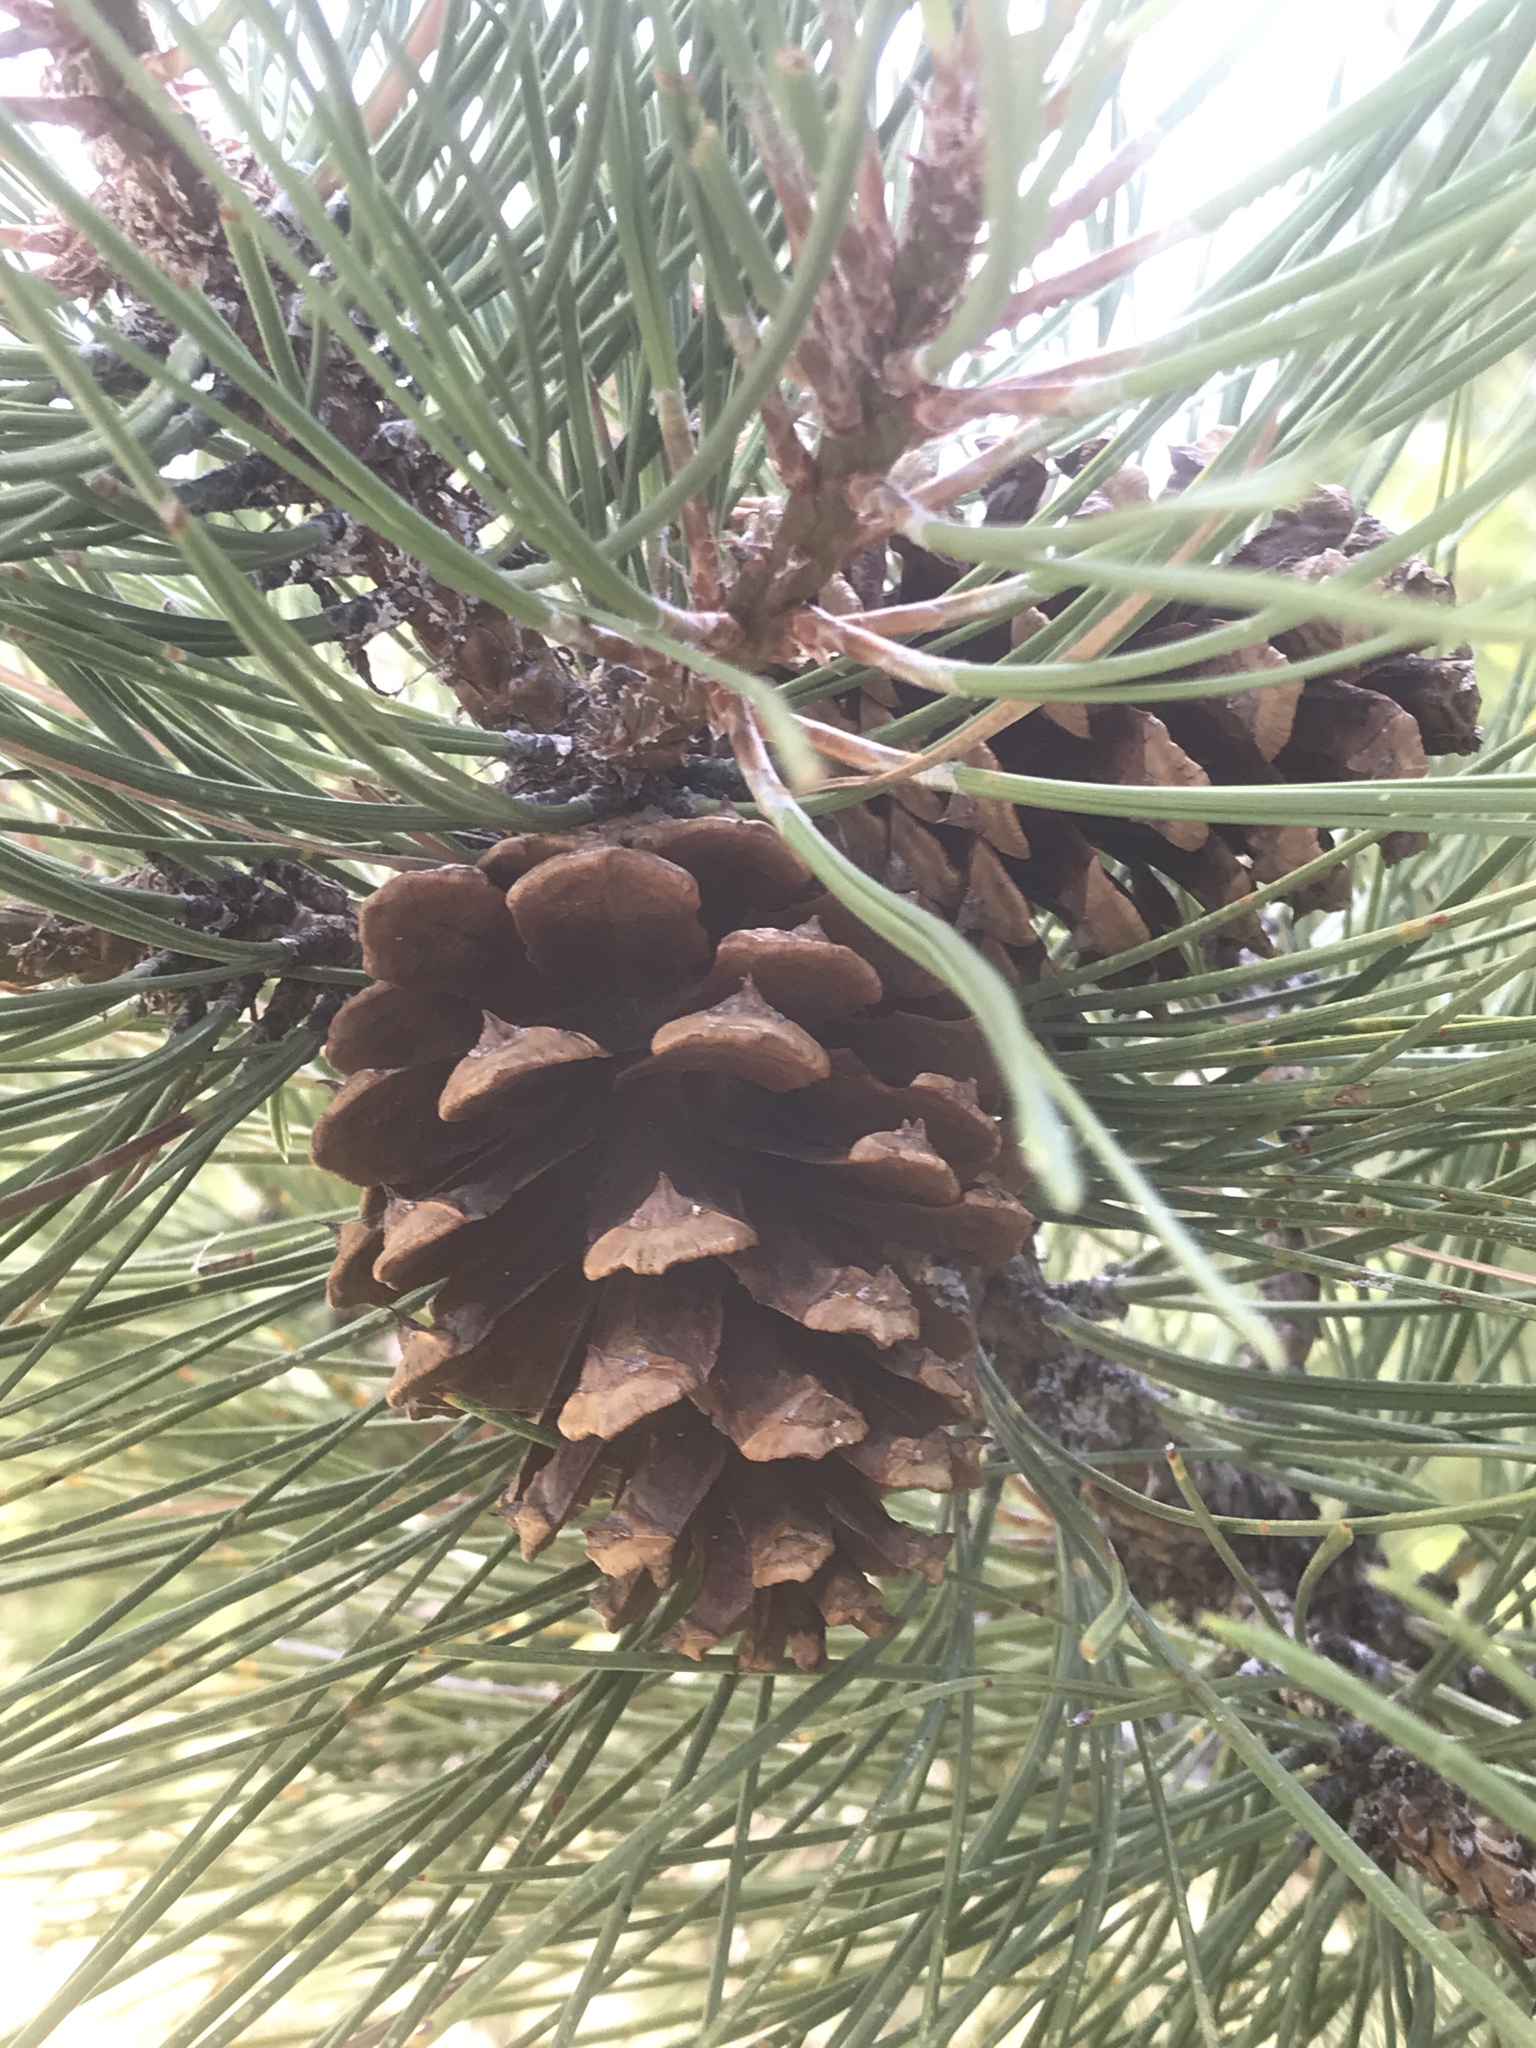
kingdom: Plantae
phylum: Tracheophyta
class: Pinopsida
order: Pinales
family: Pinaceae
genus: Pinus
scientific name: Pinus ponderosa
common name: Western yellow-pine
